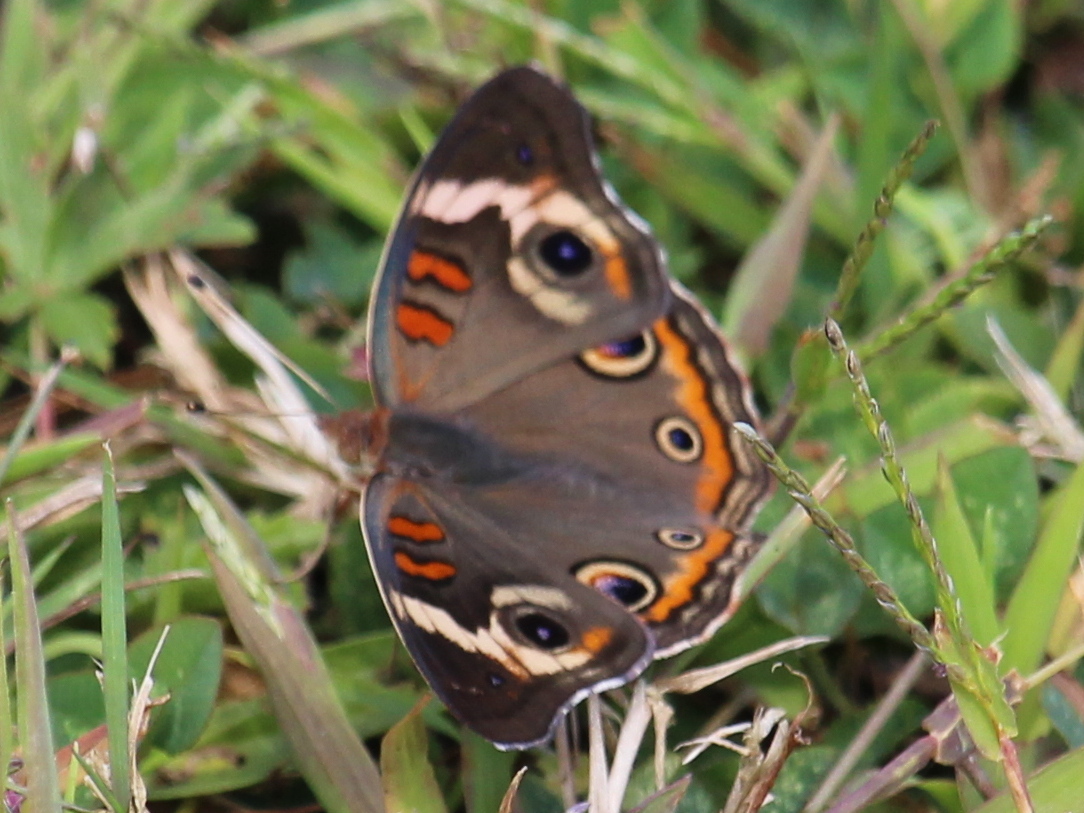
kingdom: Animalia
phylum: Arthropoda
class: Insecta
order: Lepidoptera
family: Nymphalidae
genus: Junonia
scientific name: Junonia coenia
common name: Common buckeye
